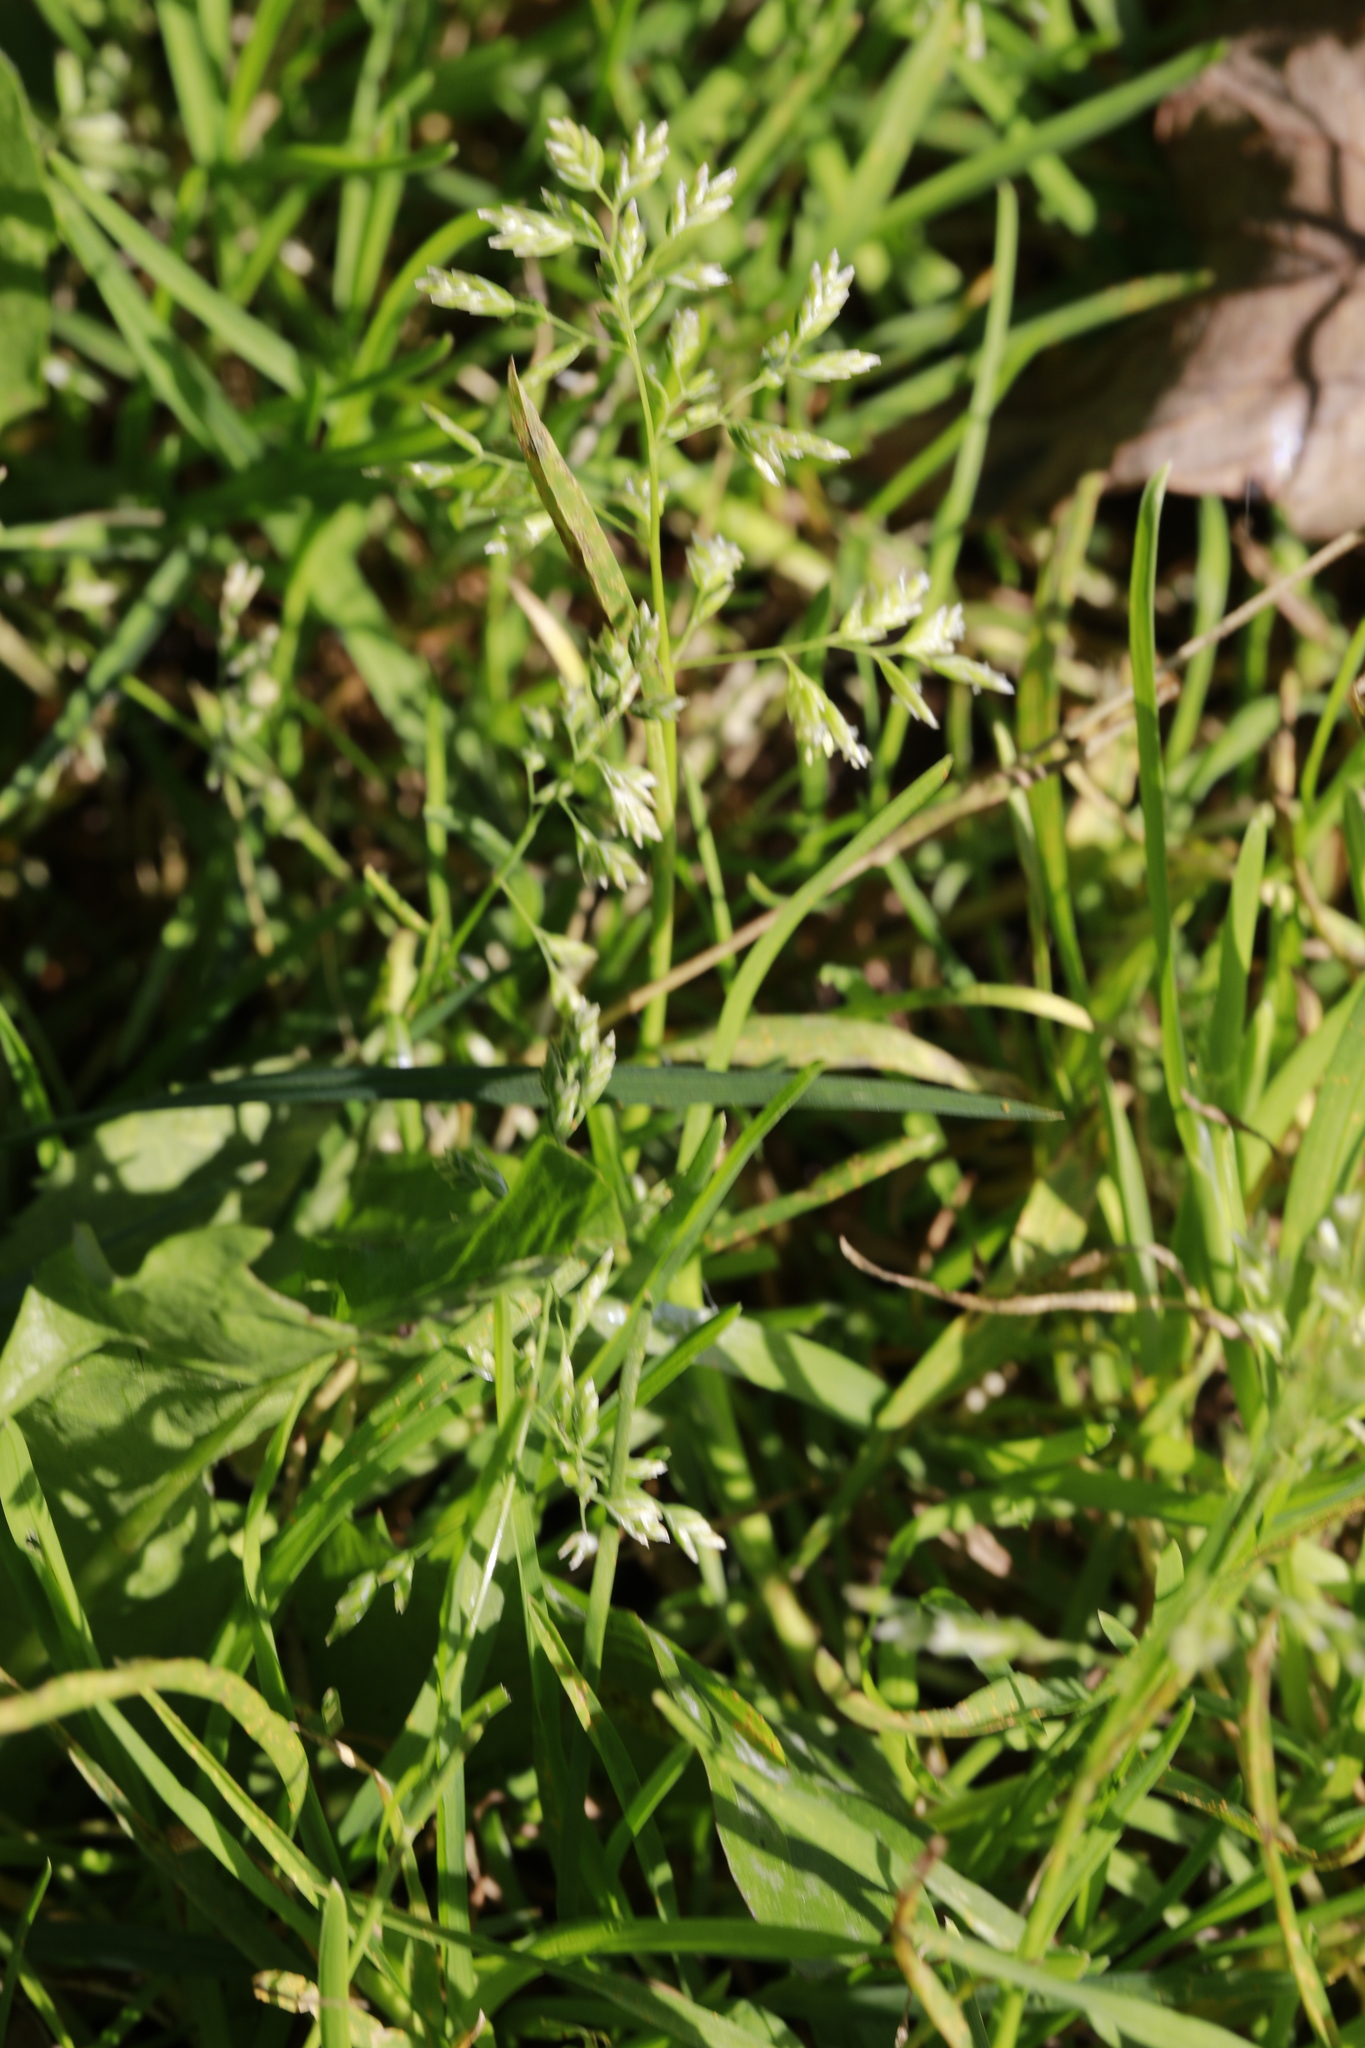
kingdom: Plantae
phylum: Tracheophyta
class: Liliopsida
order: Poales
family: Poaceae
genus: Poa
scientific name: Poa annua
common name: Annual bluegrass
